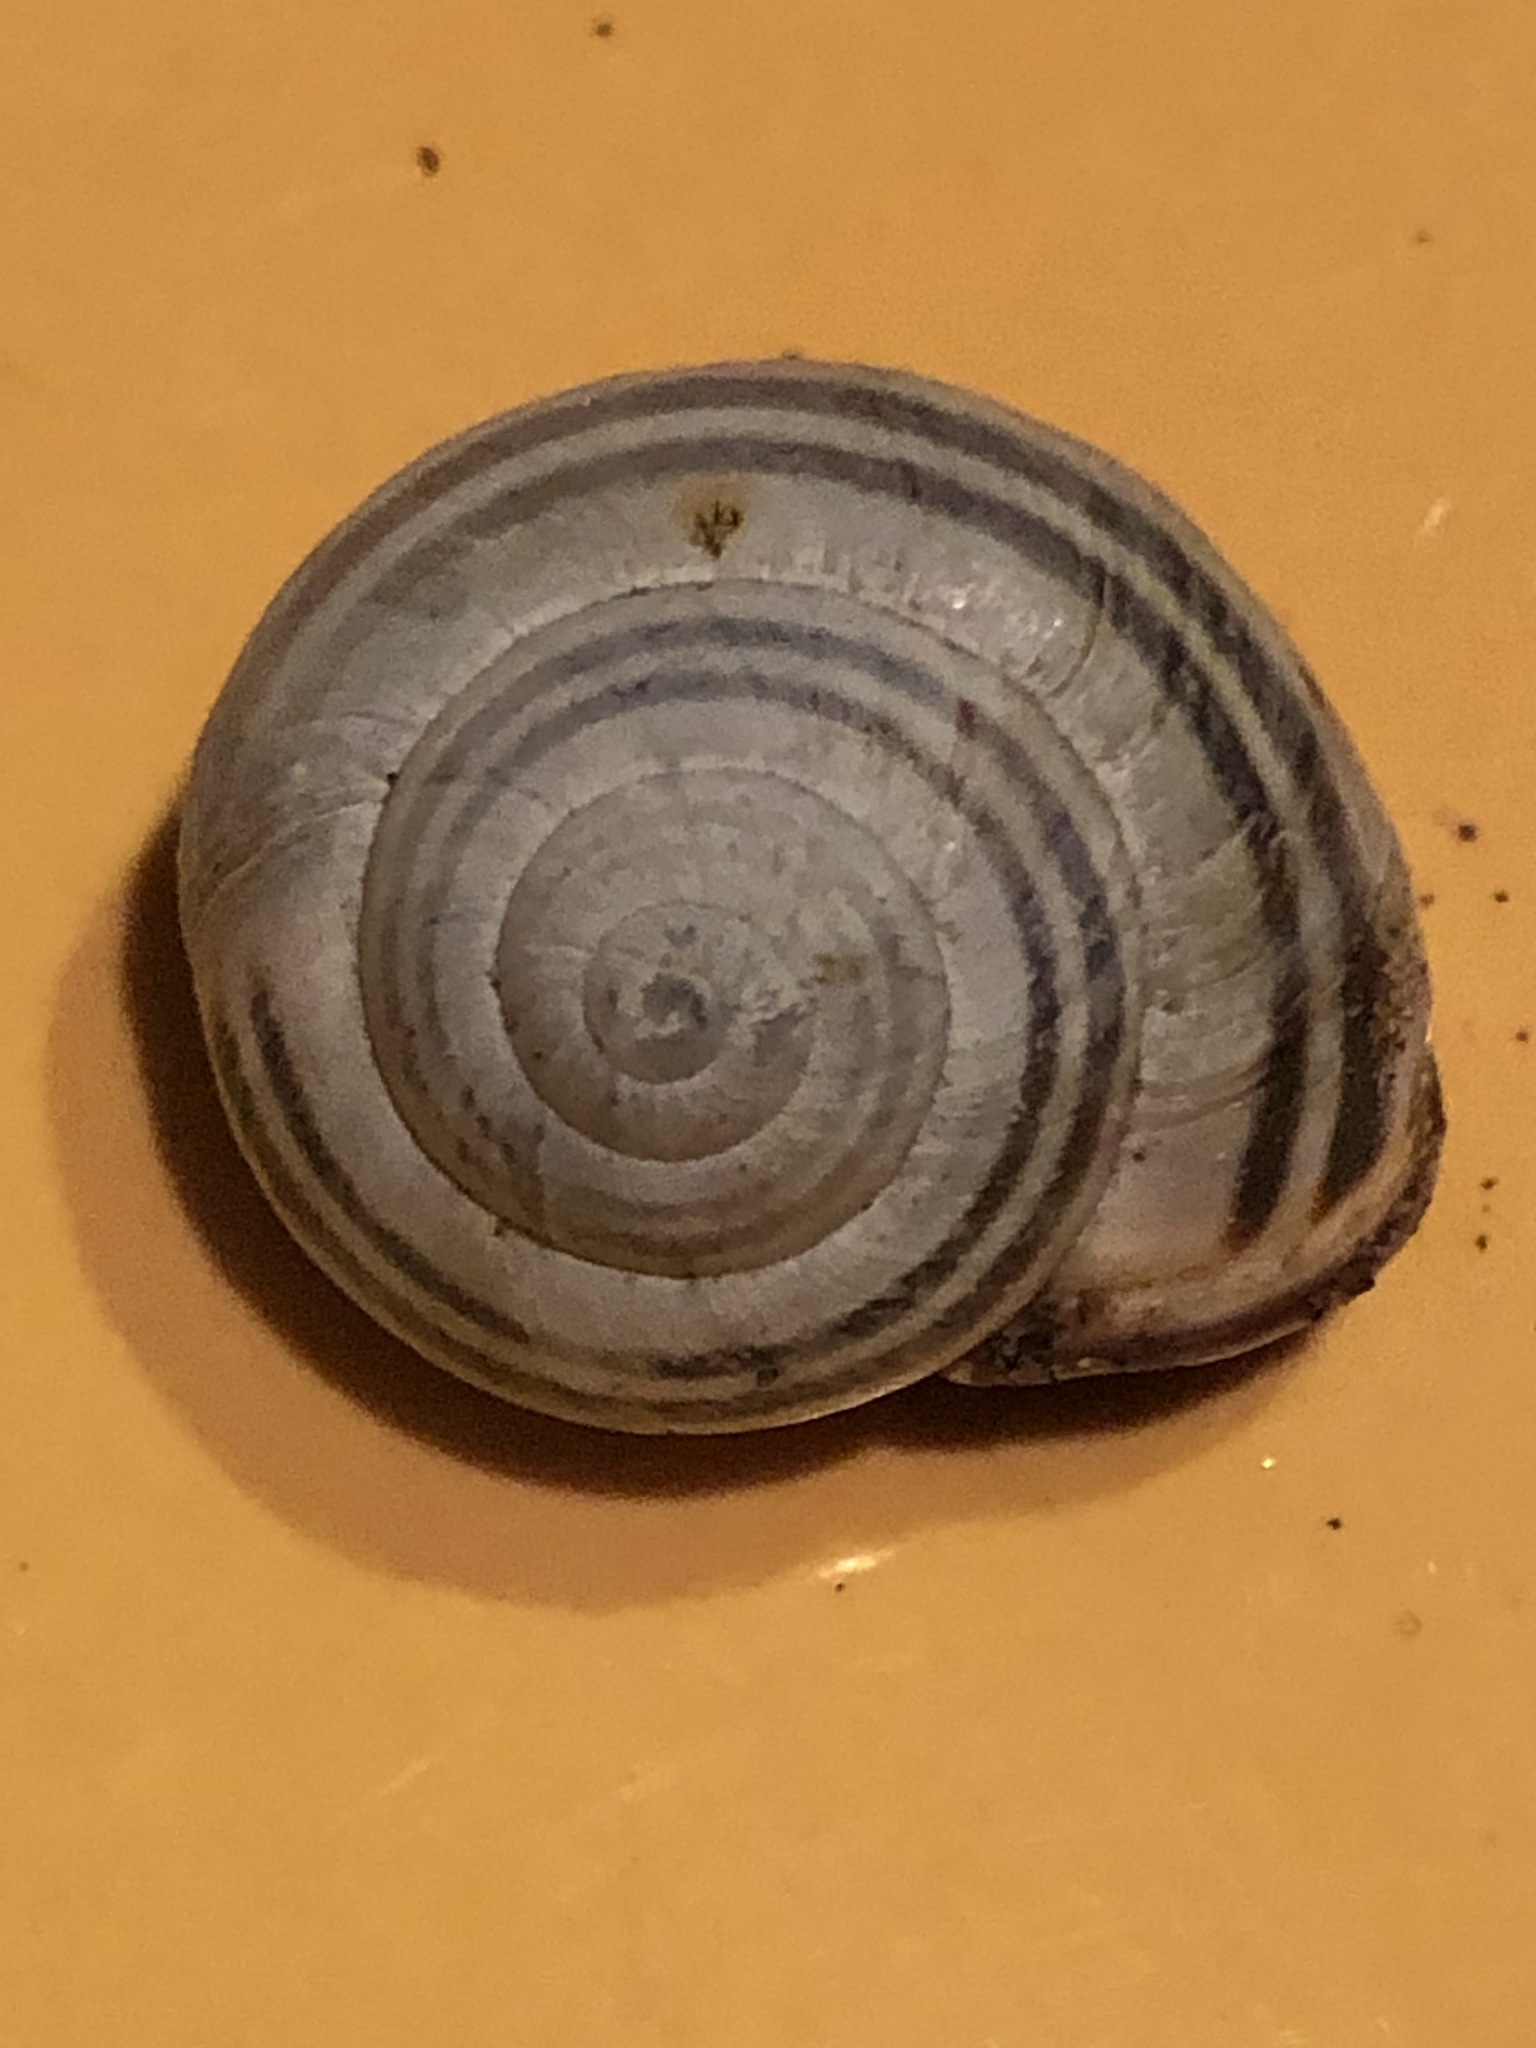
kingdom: Animalia
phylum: Mollusca
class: Gastropoda
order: Stylommatophora
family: Helicidae
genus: Cepaea
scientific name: Cepaea nemoralis
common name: Grovesnail
